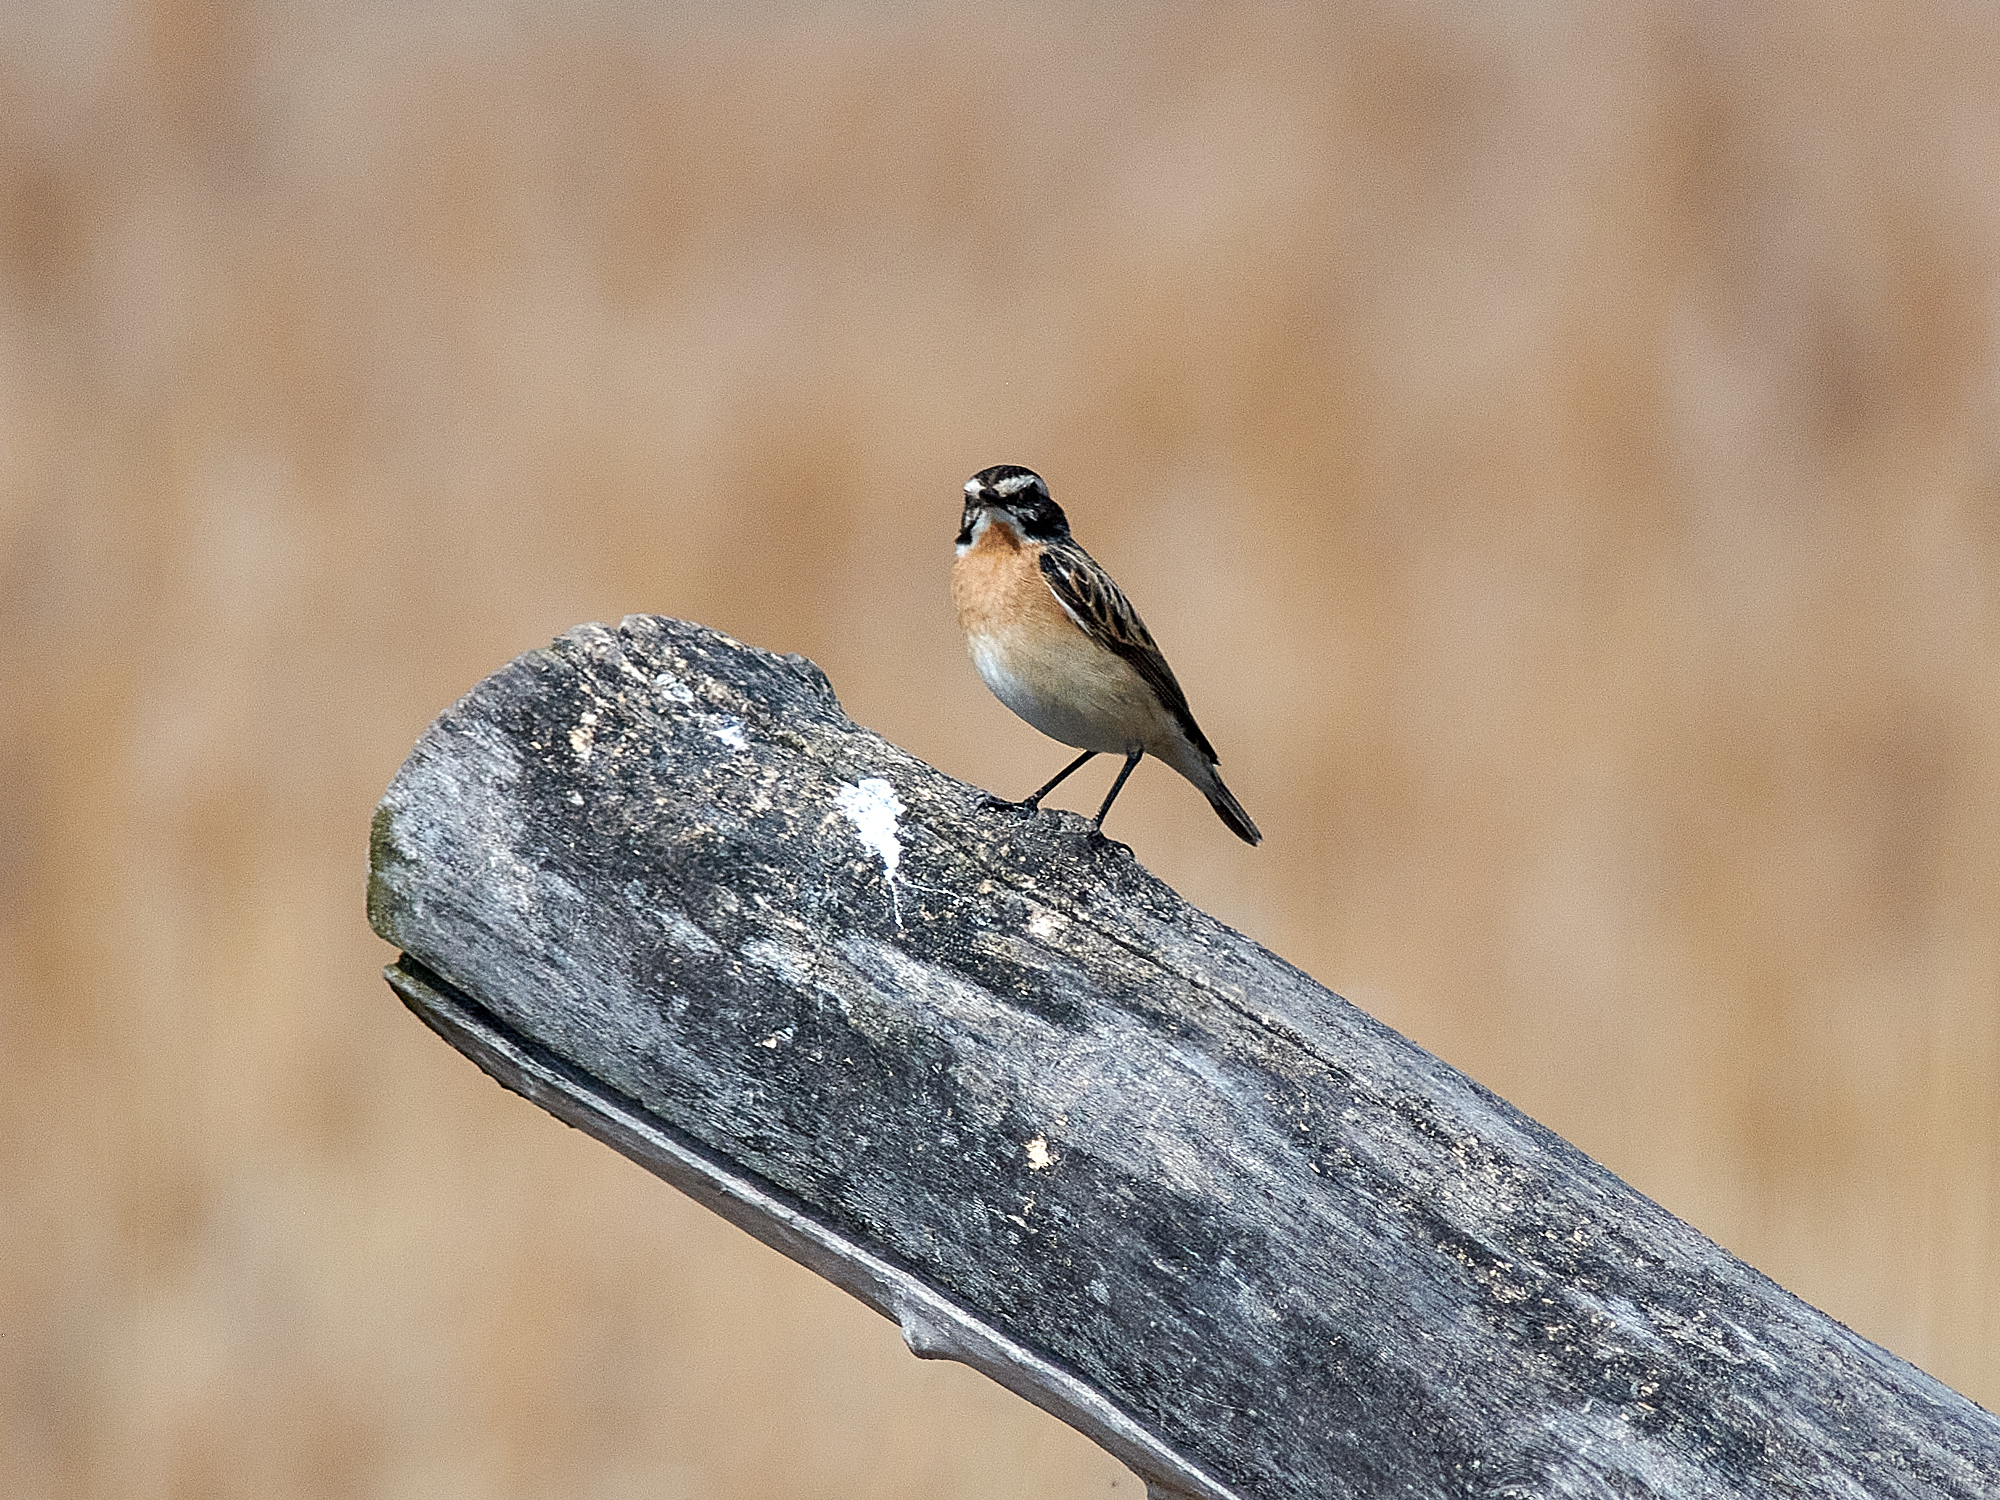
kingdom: Animalia
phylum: Chordata
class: Aves
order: Passeriformes
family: Muscicapidae
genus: Saxicola
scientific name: Saxicola rubetra
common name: Whinchat
